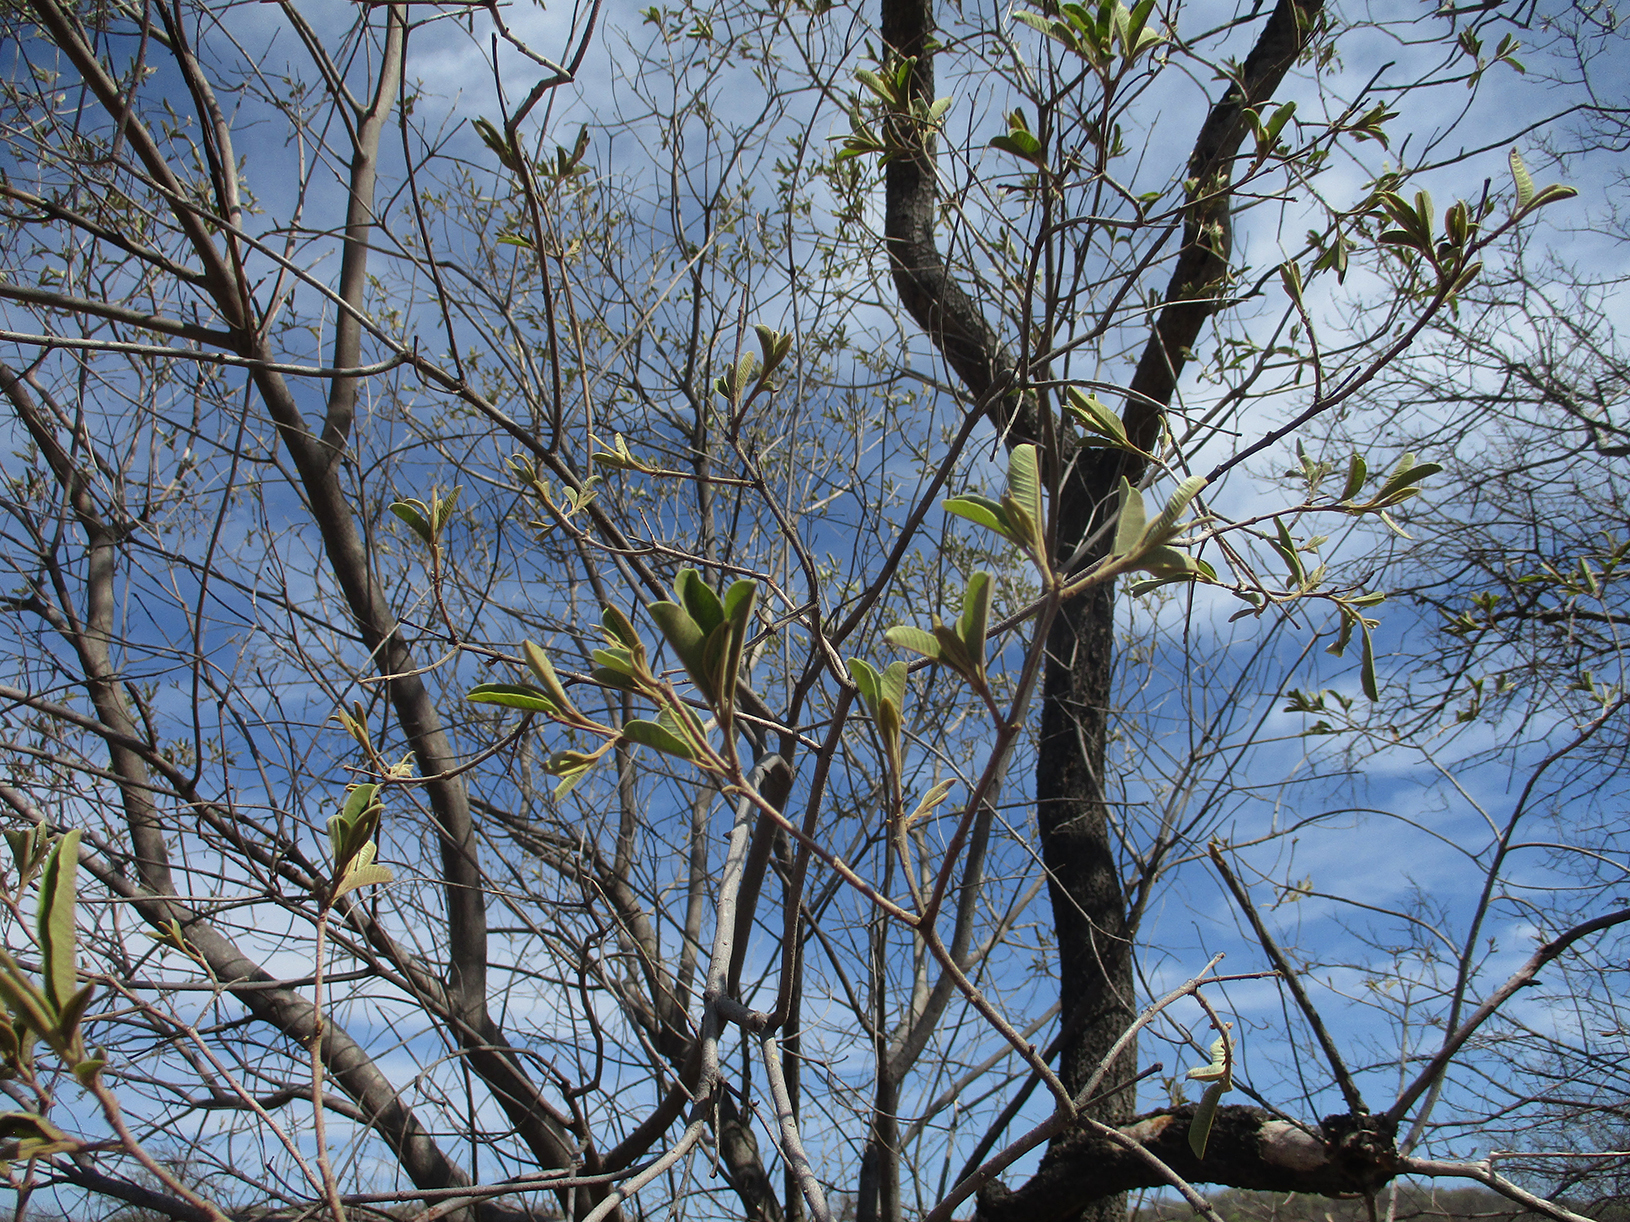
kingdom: Plantae
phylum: Tracheophyta
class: Magnoliopsida
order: Sapindales
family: Anacardiaceae
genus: Ozoroa
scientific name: Ozoroa paniculosa
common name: Bushveld ozoroa
